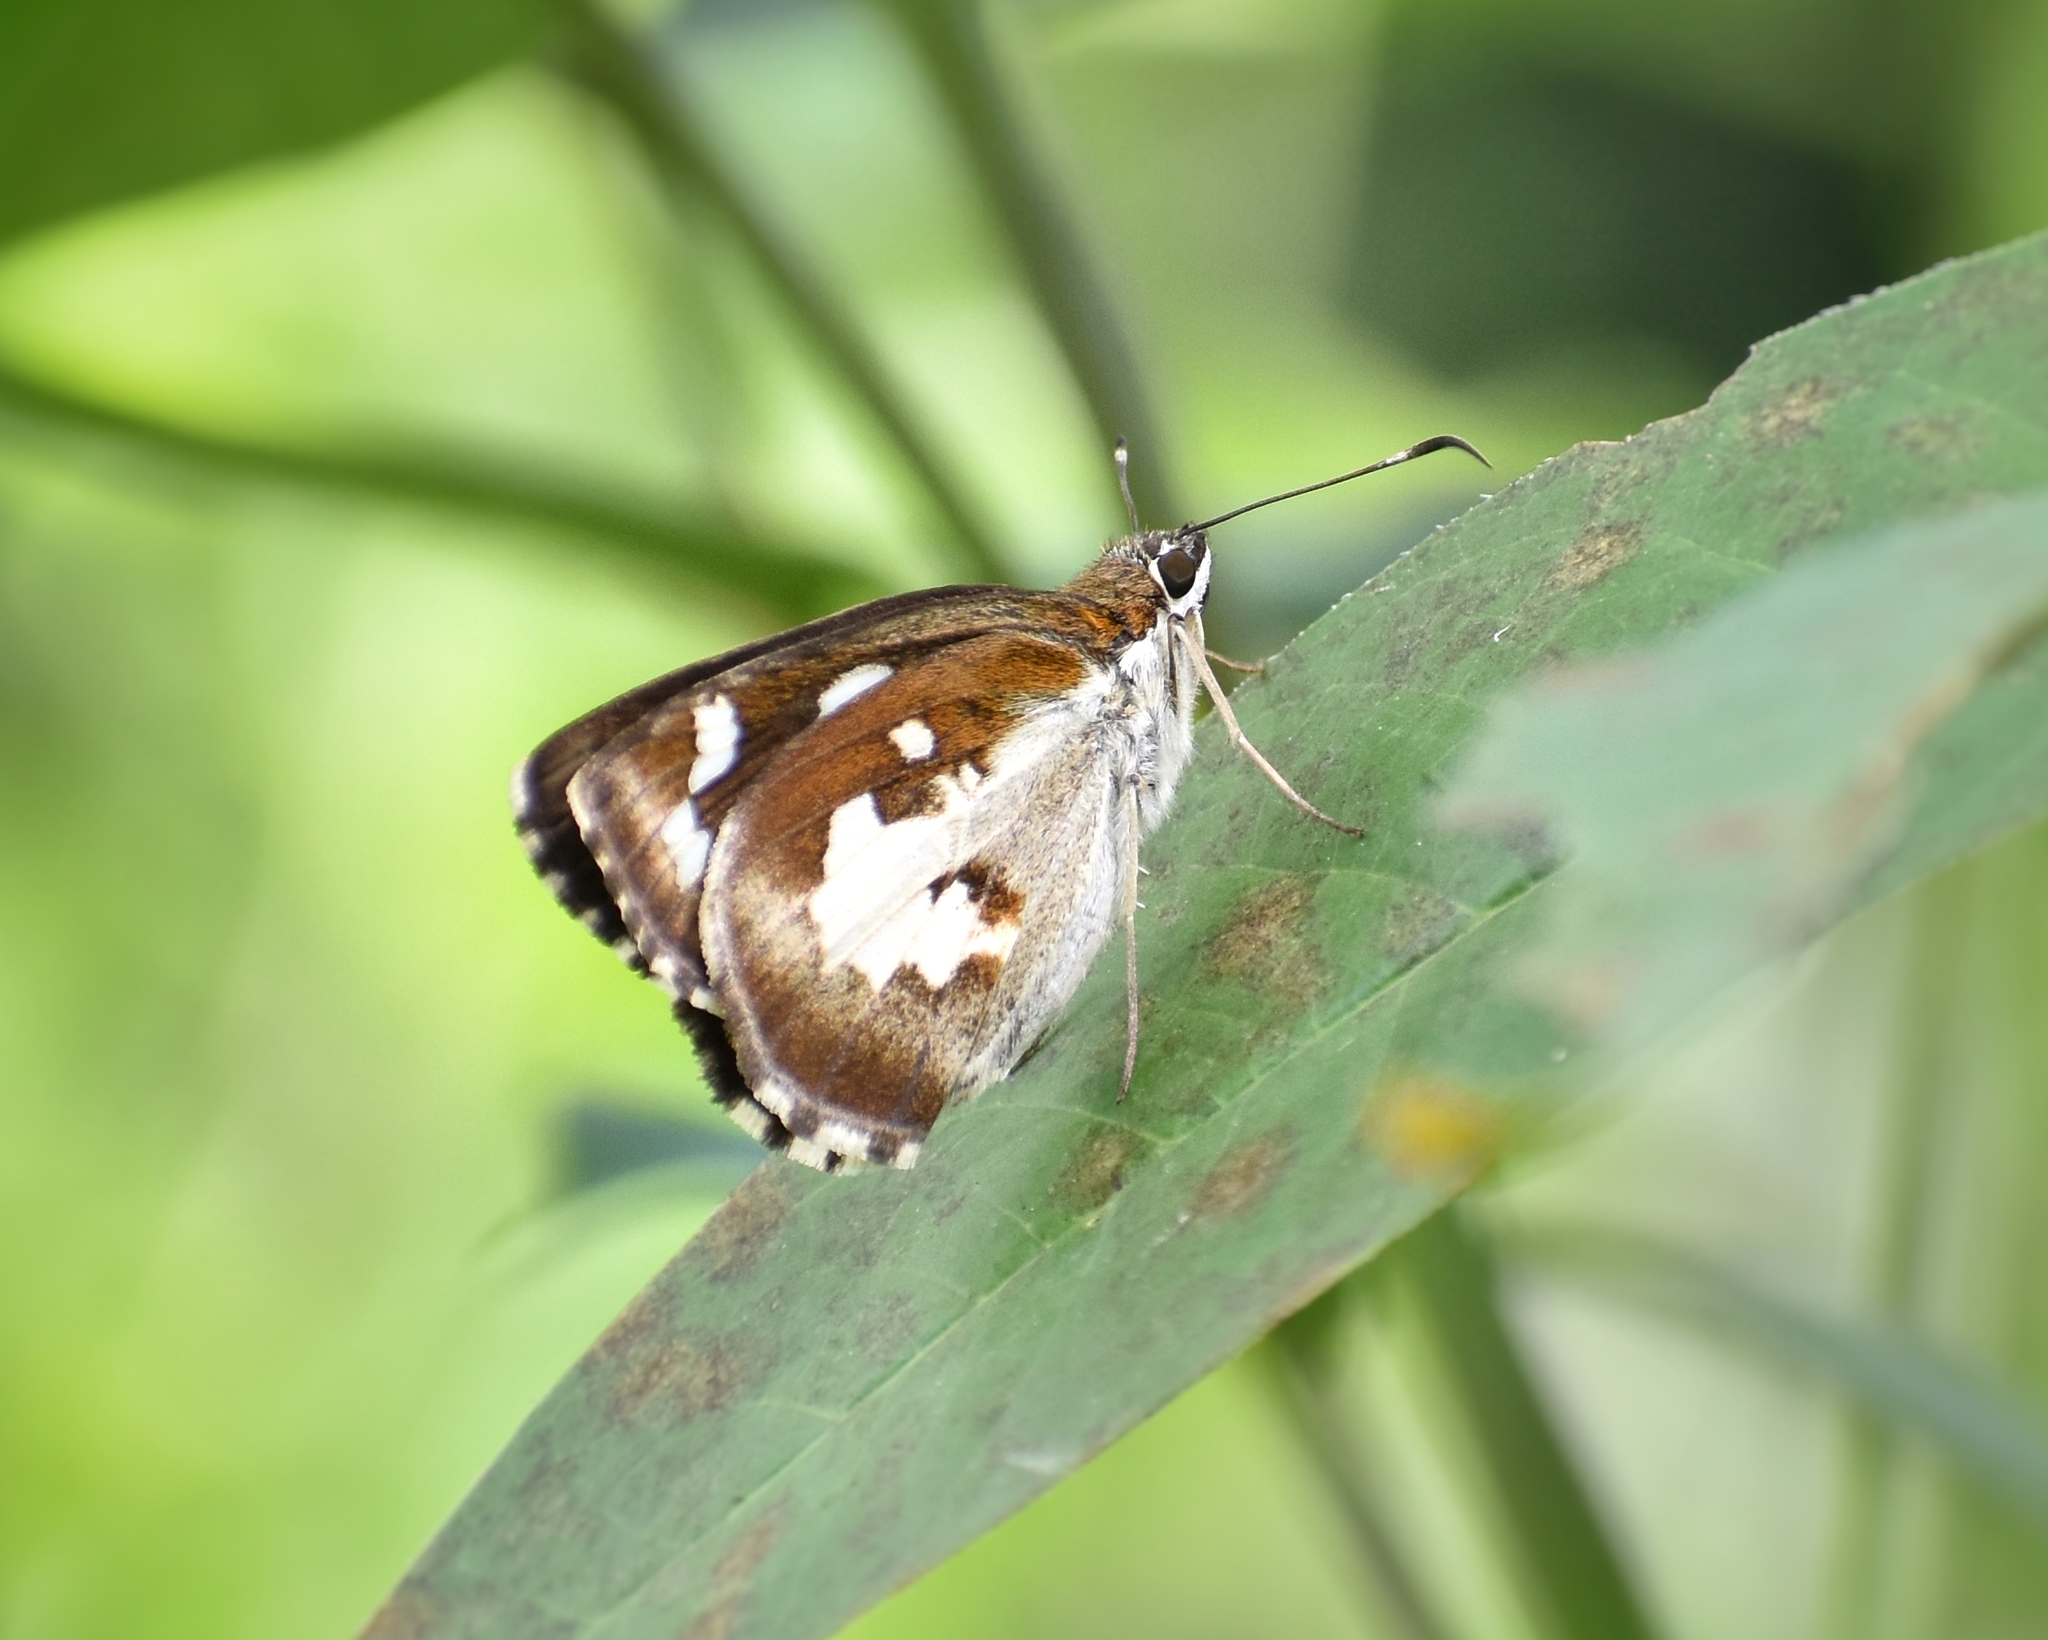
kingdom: Animalia
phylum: Arthropoda
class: Insecta
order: Lepidoptera
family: Hesperiidae
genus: Udaspes
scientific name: Udaspes folus
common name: Grass demon
